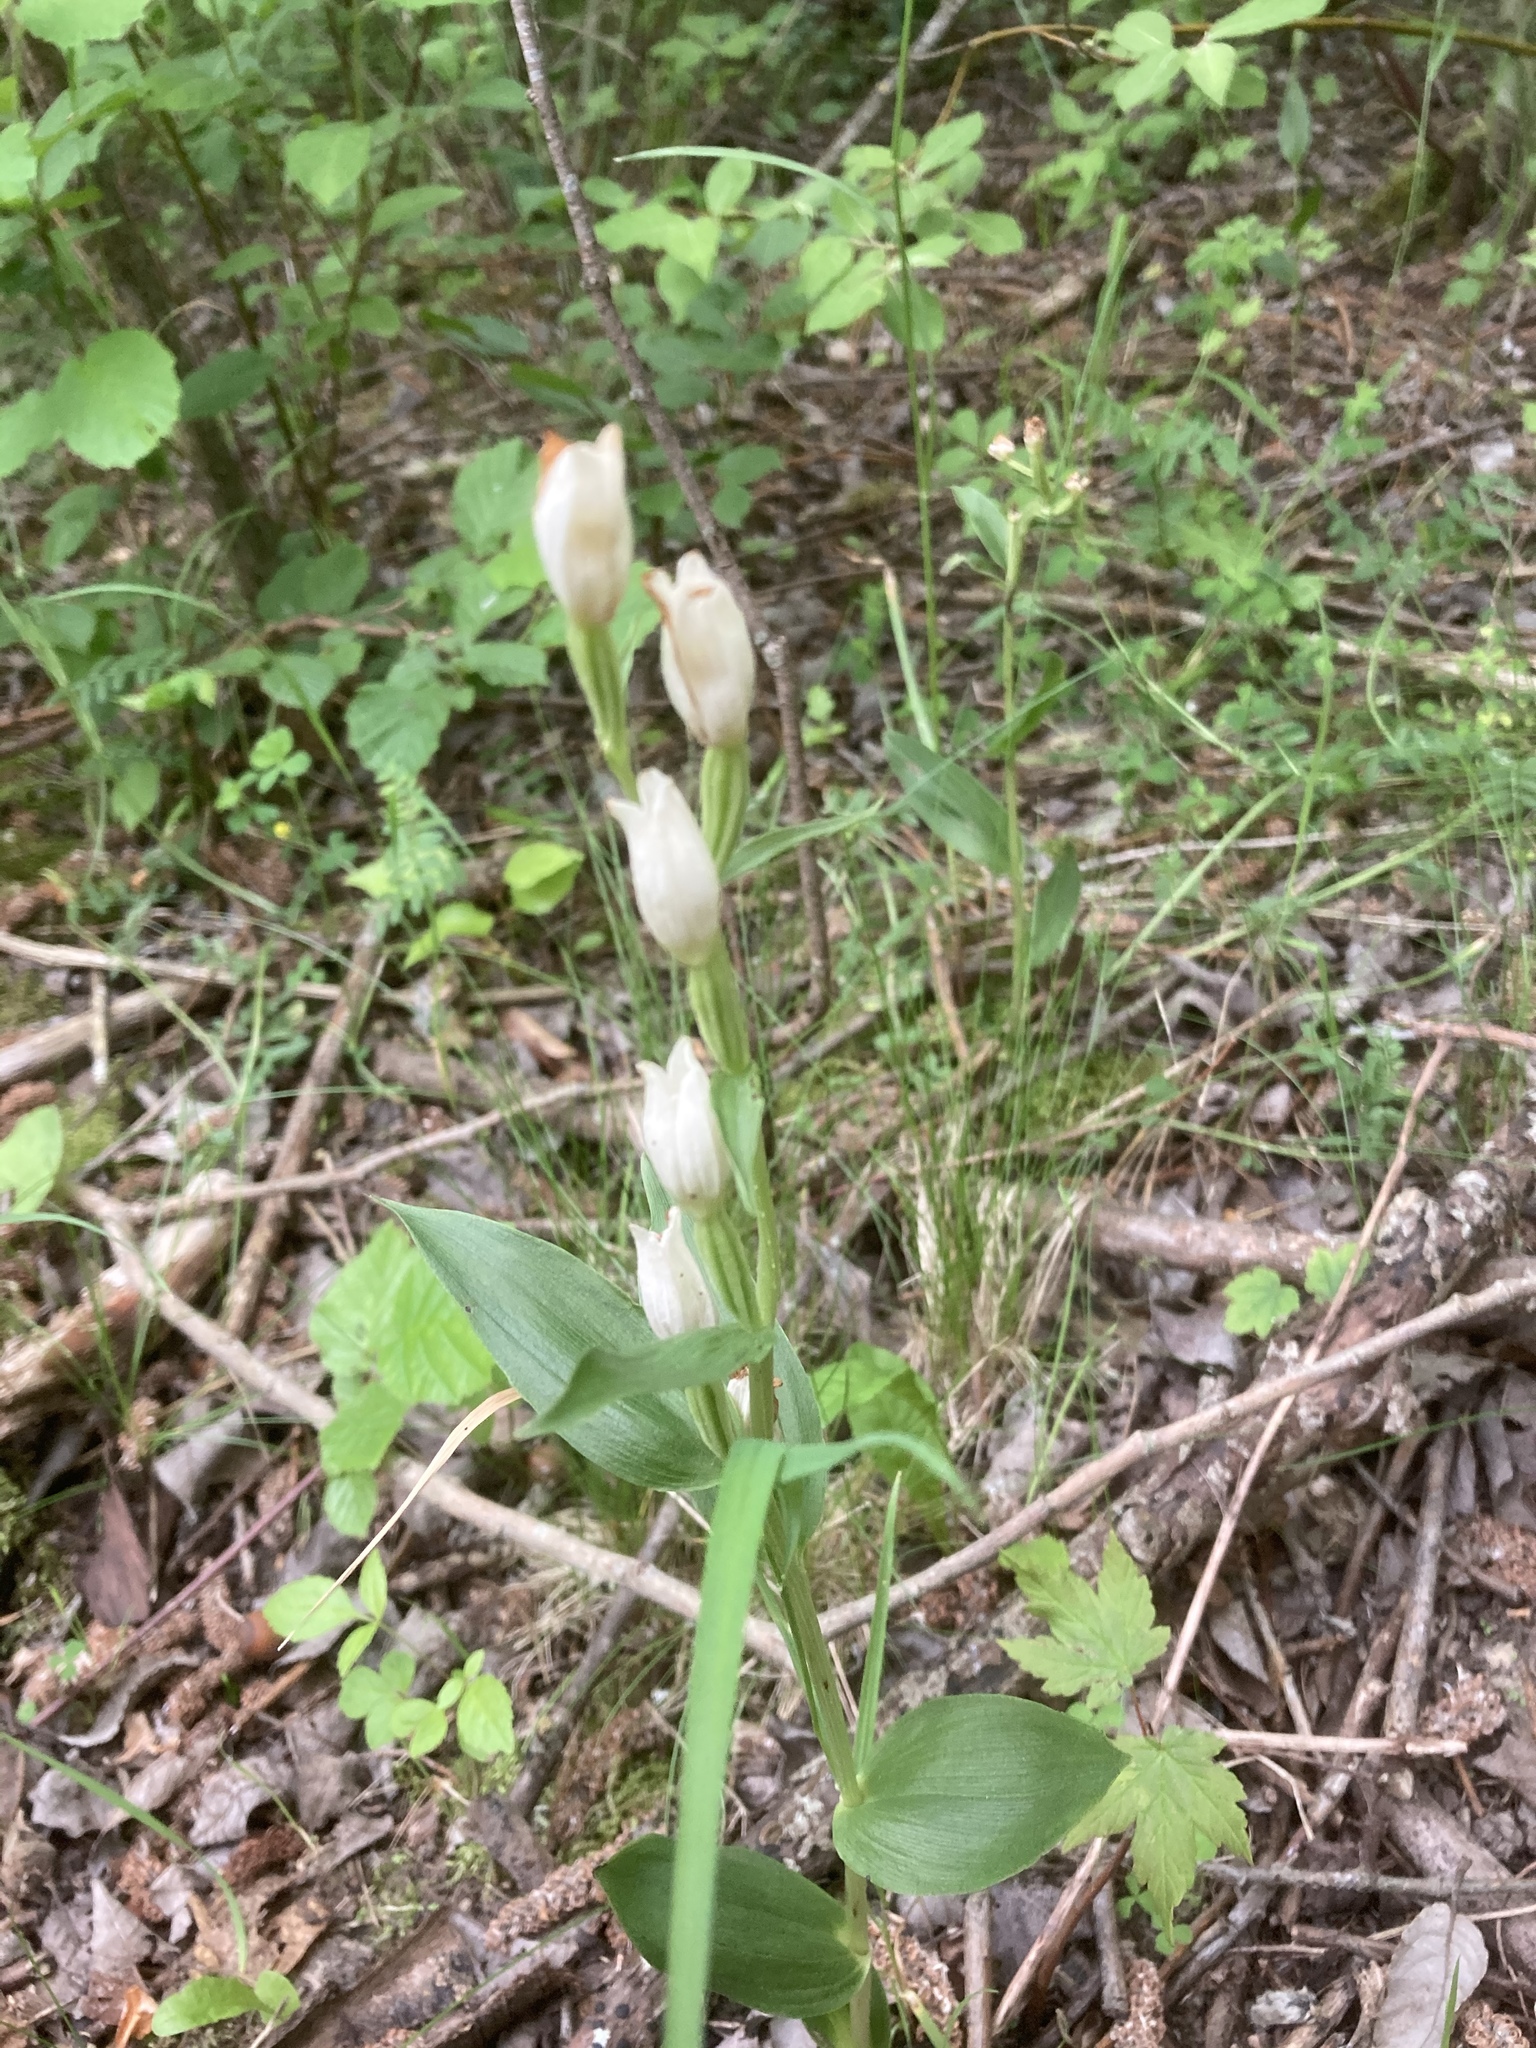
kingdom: Plantae
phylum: Tracheophyta
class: Liliopsida
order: Asparagales
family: Orchidaceae
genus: Cephalanthera
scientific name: Cephalanthera damasonium
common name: White helleborine
